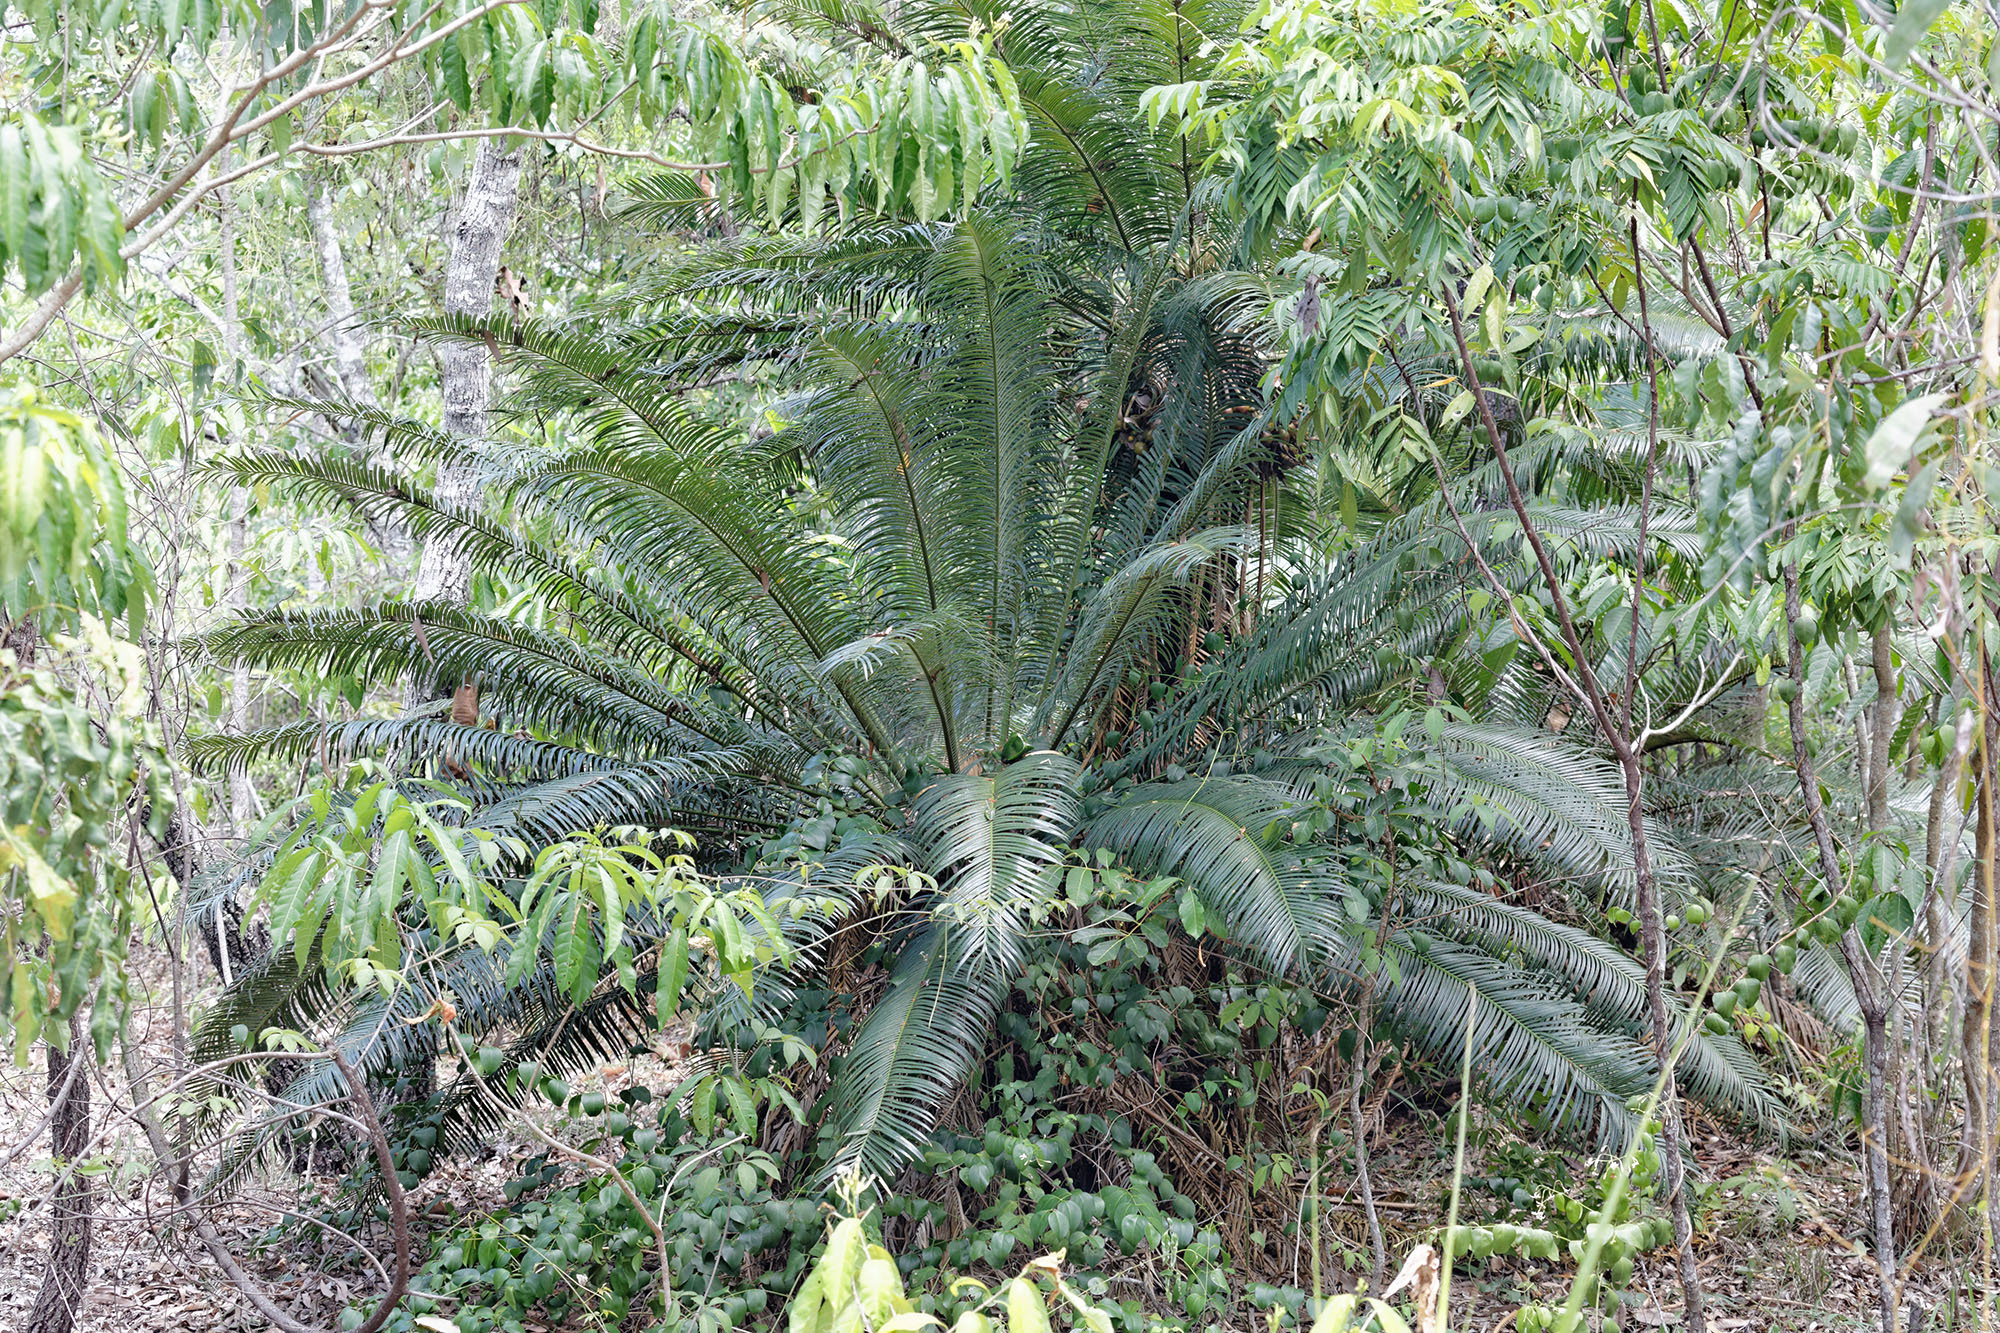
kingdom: Plantae
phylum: Tracheophyta
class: Cycadopsida
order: Cycadales
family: Cycadaceae
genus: Cycas
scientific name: Cycas media
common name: Queensland cycas
